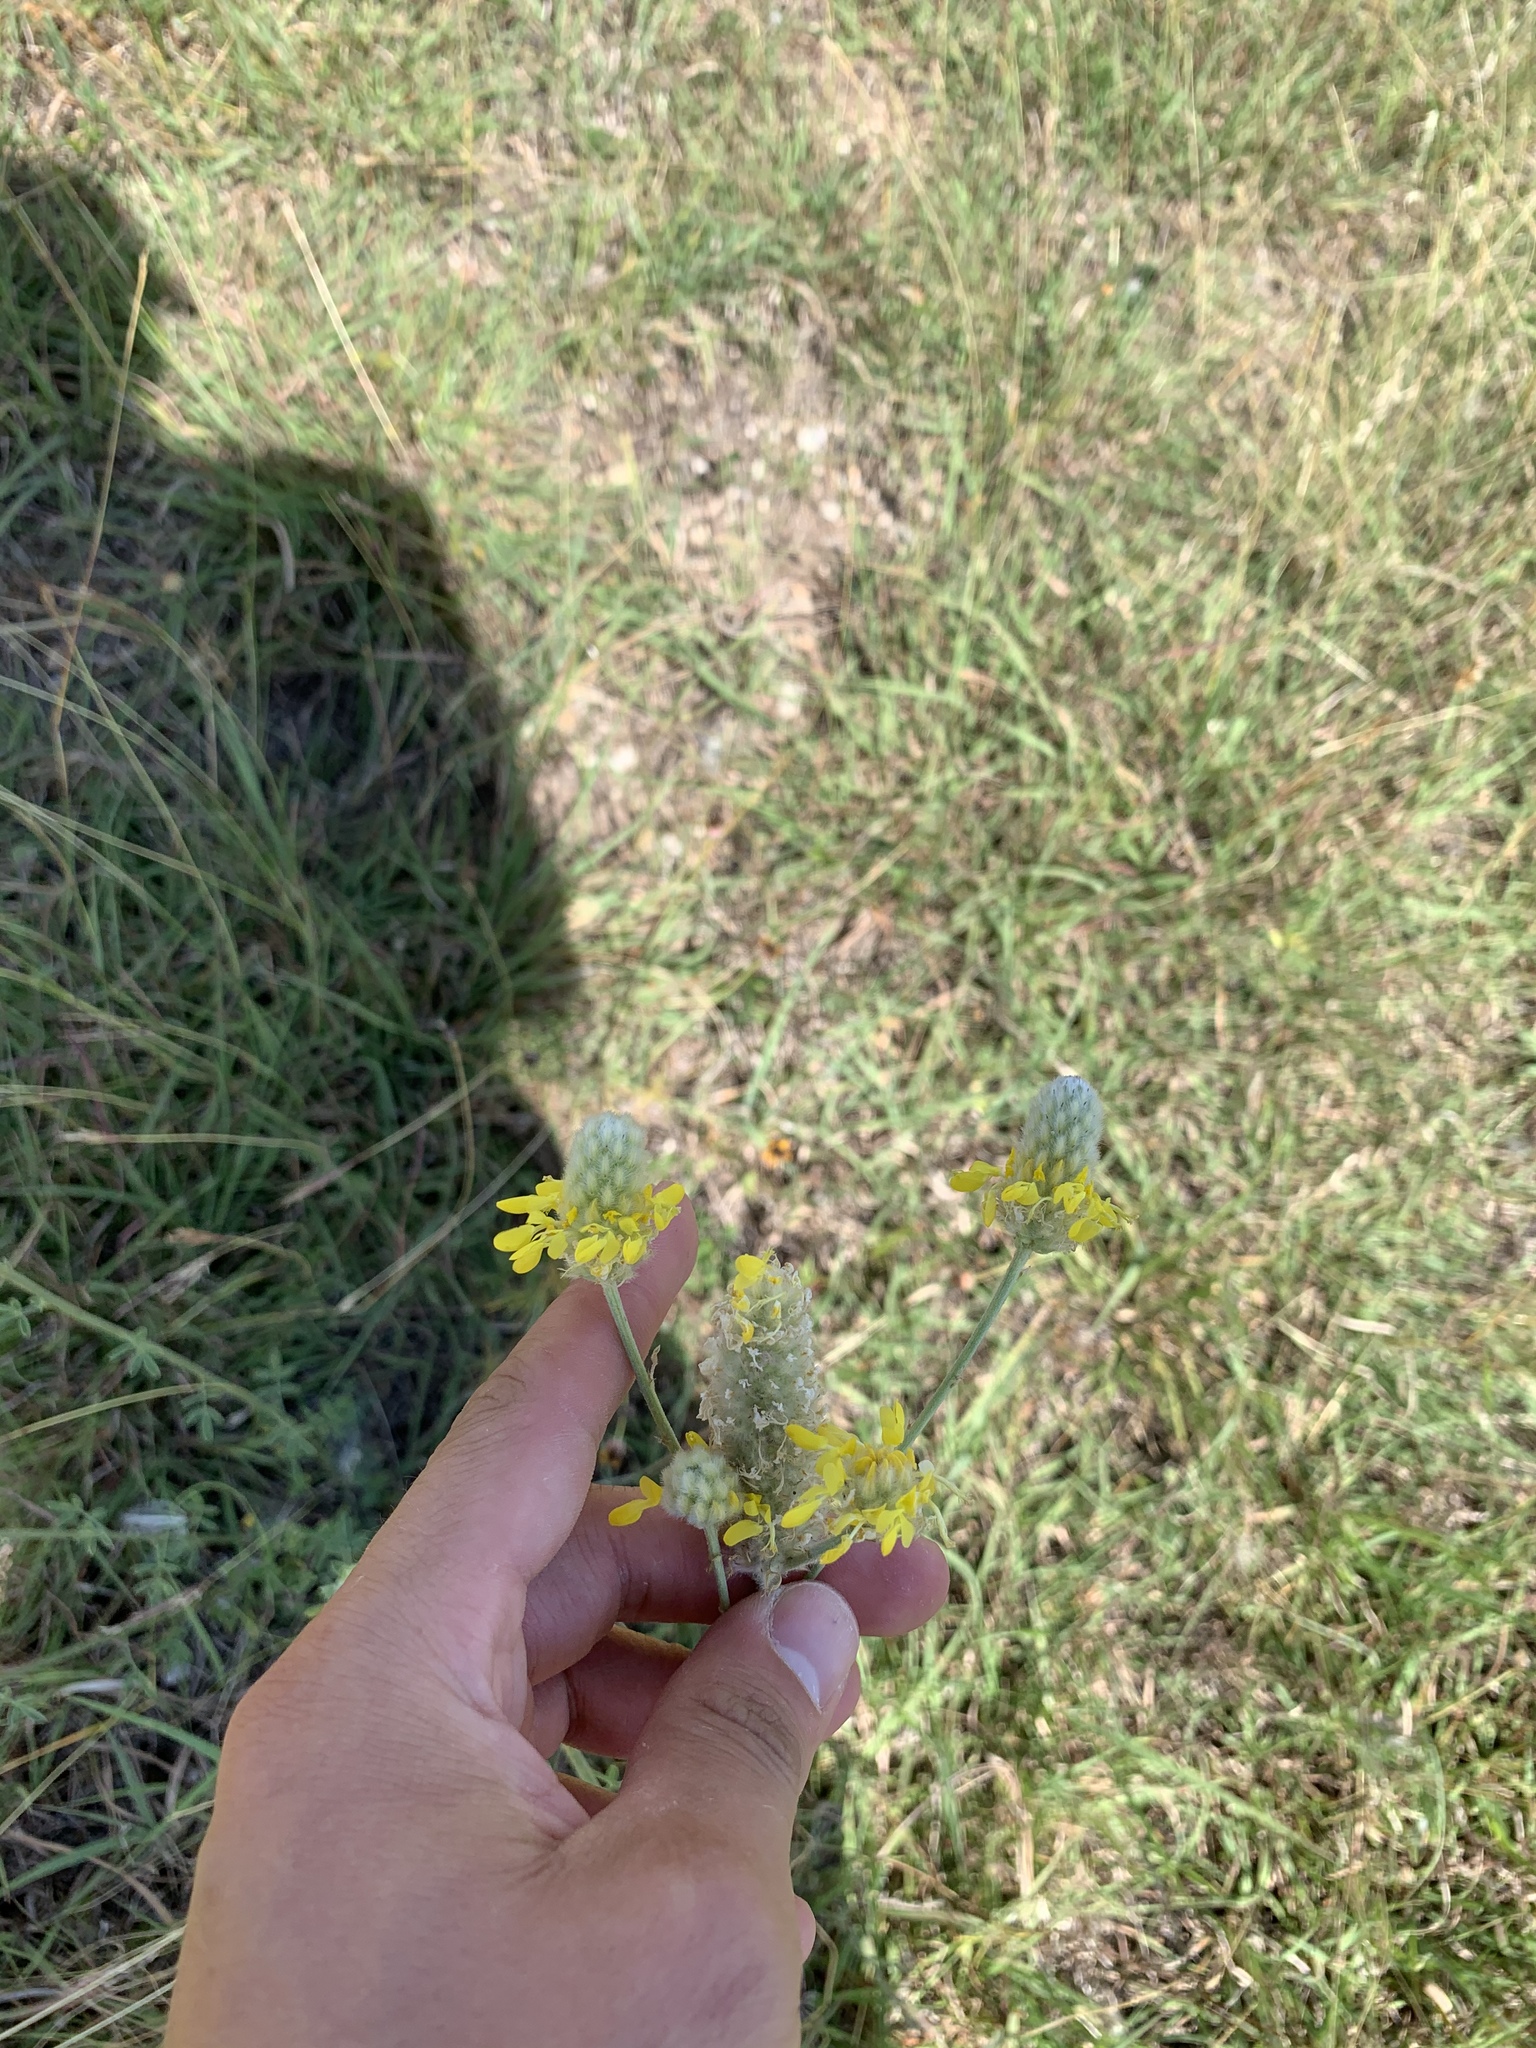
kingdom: Plantae
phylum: Tracheophyta
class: Magnoliopsida
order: Fabales
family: Fabaceae
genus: Dalea
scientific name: Dalea aurea
